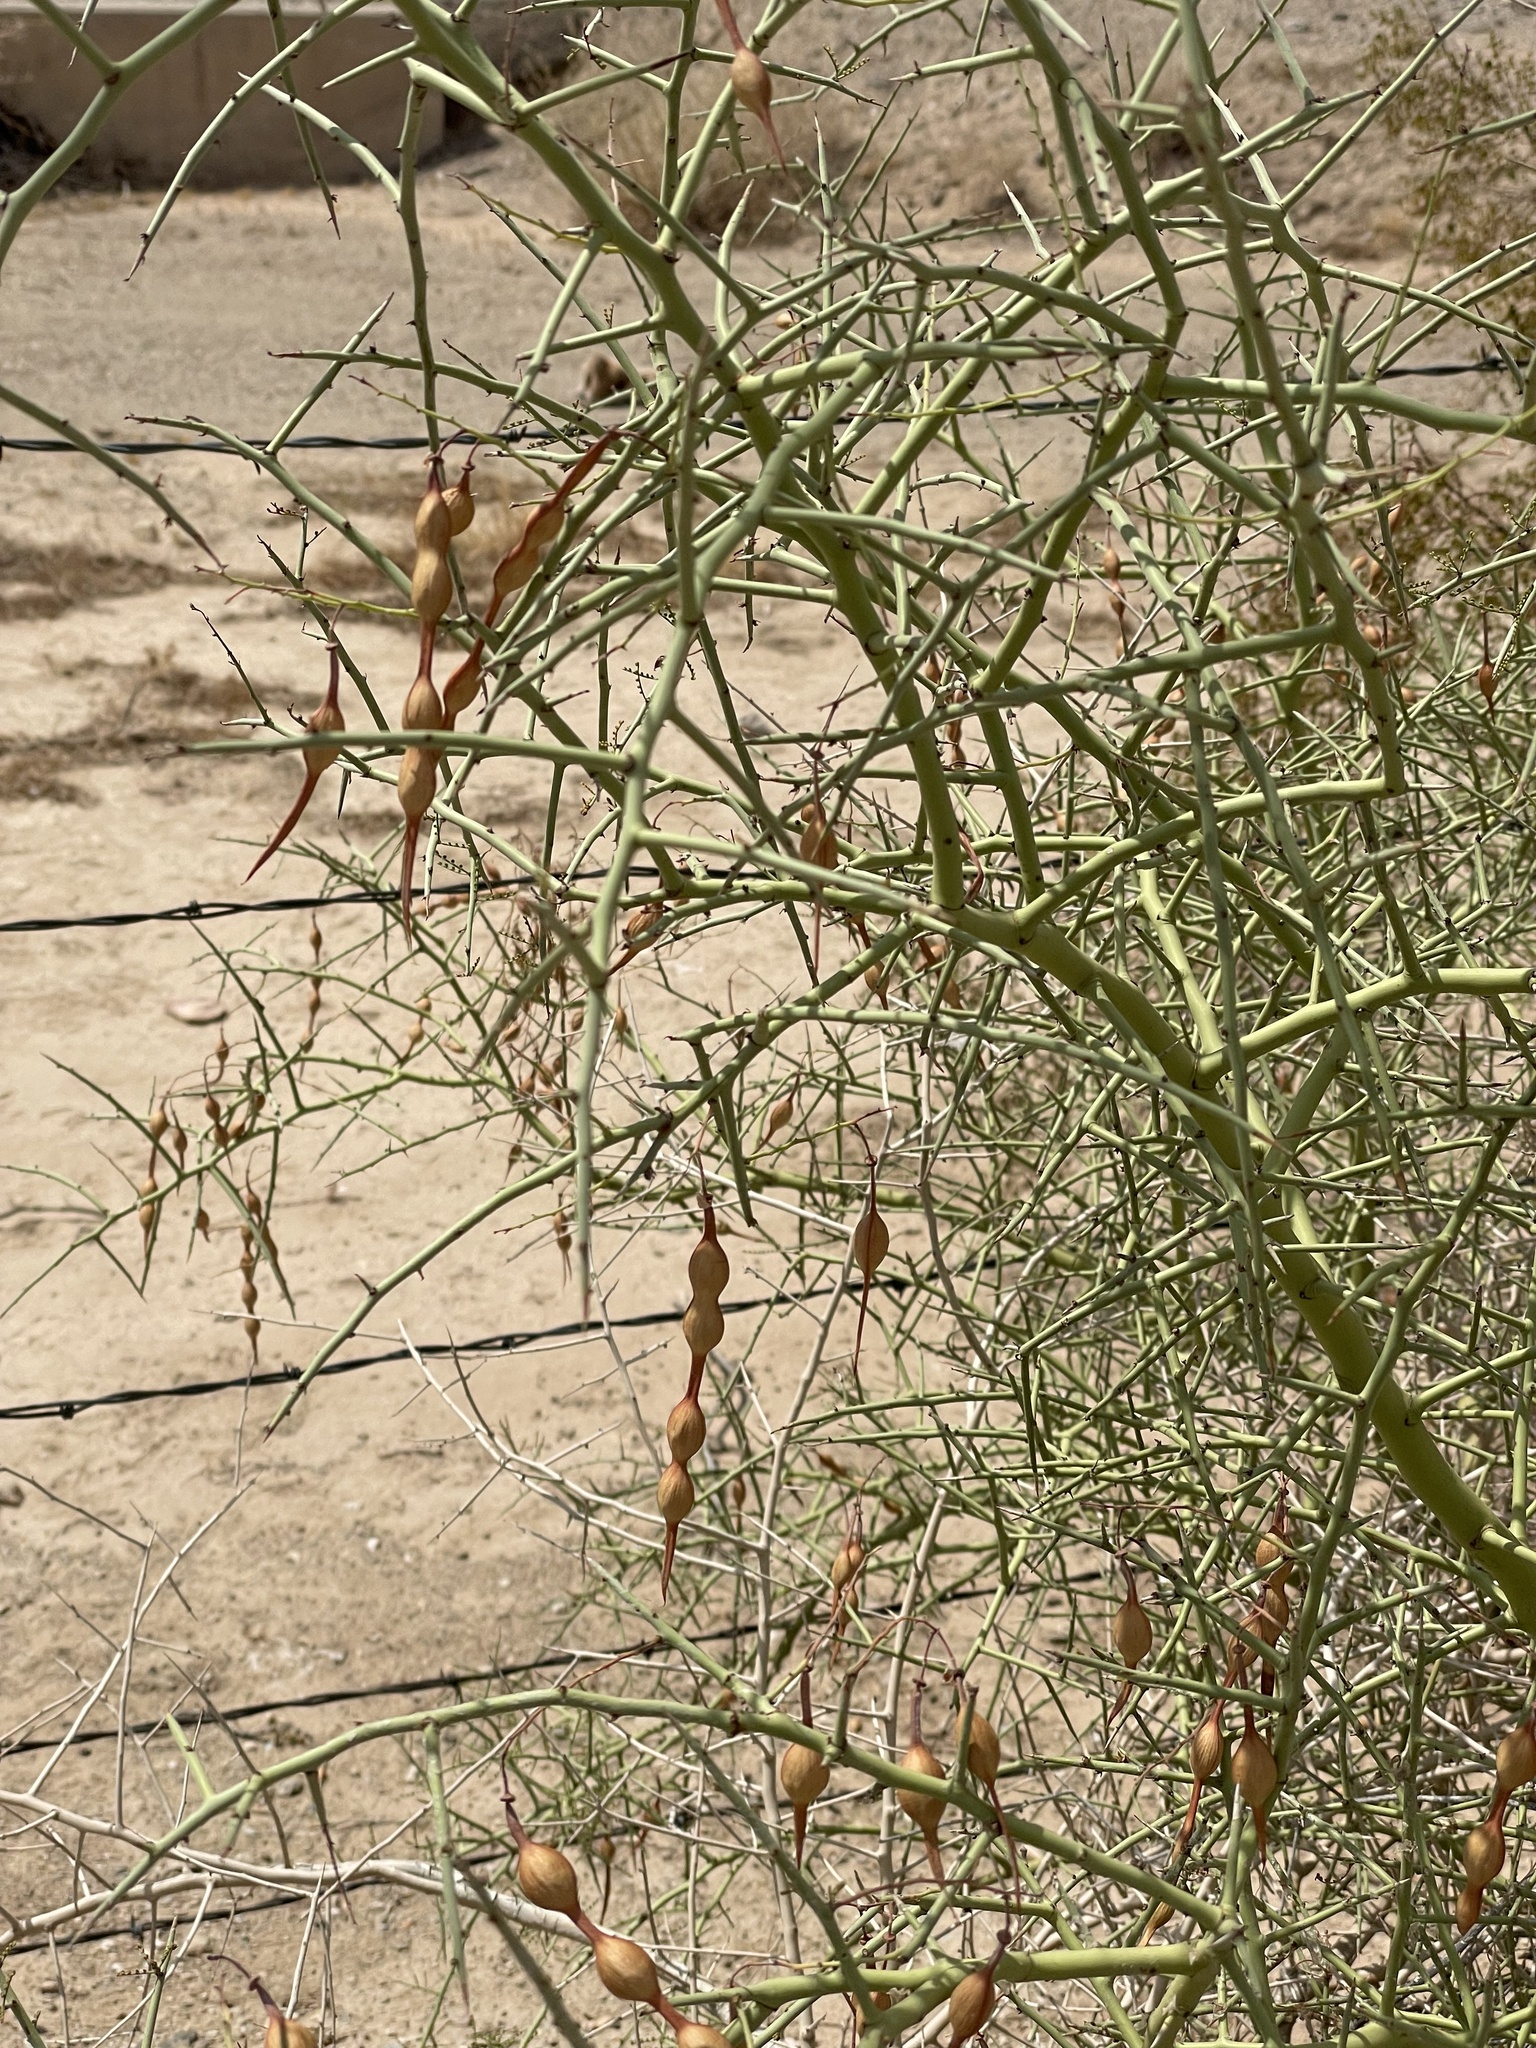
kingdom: Plantae
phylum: Tracheophyta
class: Magnoliopsida
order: Fabales
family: Fabaceae
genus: Parkinsonia
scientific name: Parkinsonia microphylla
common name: Yellow paloverde
